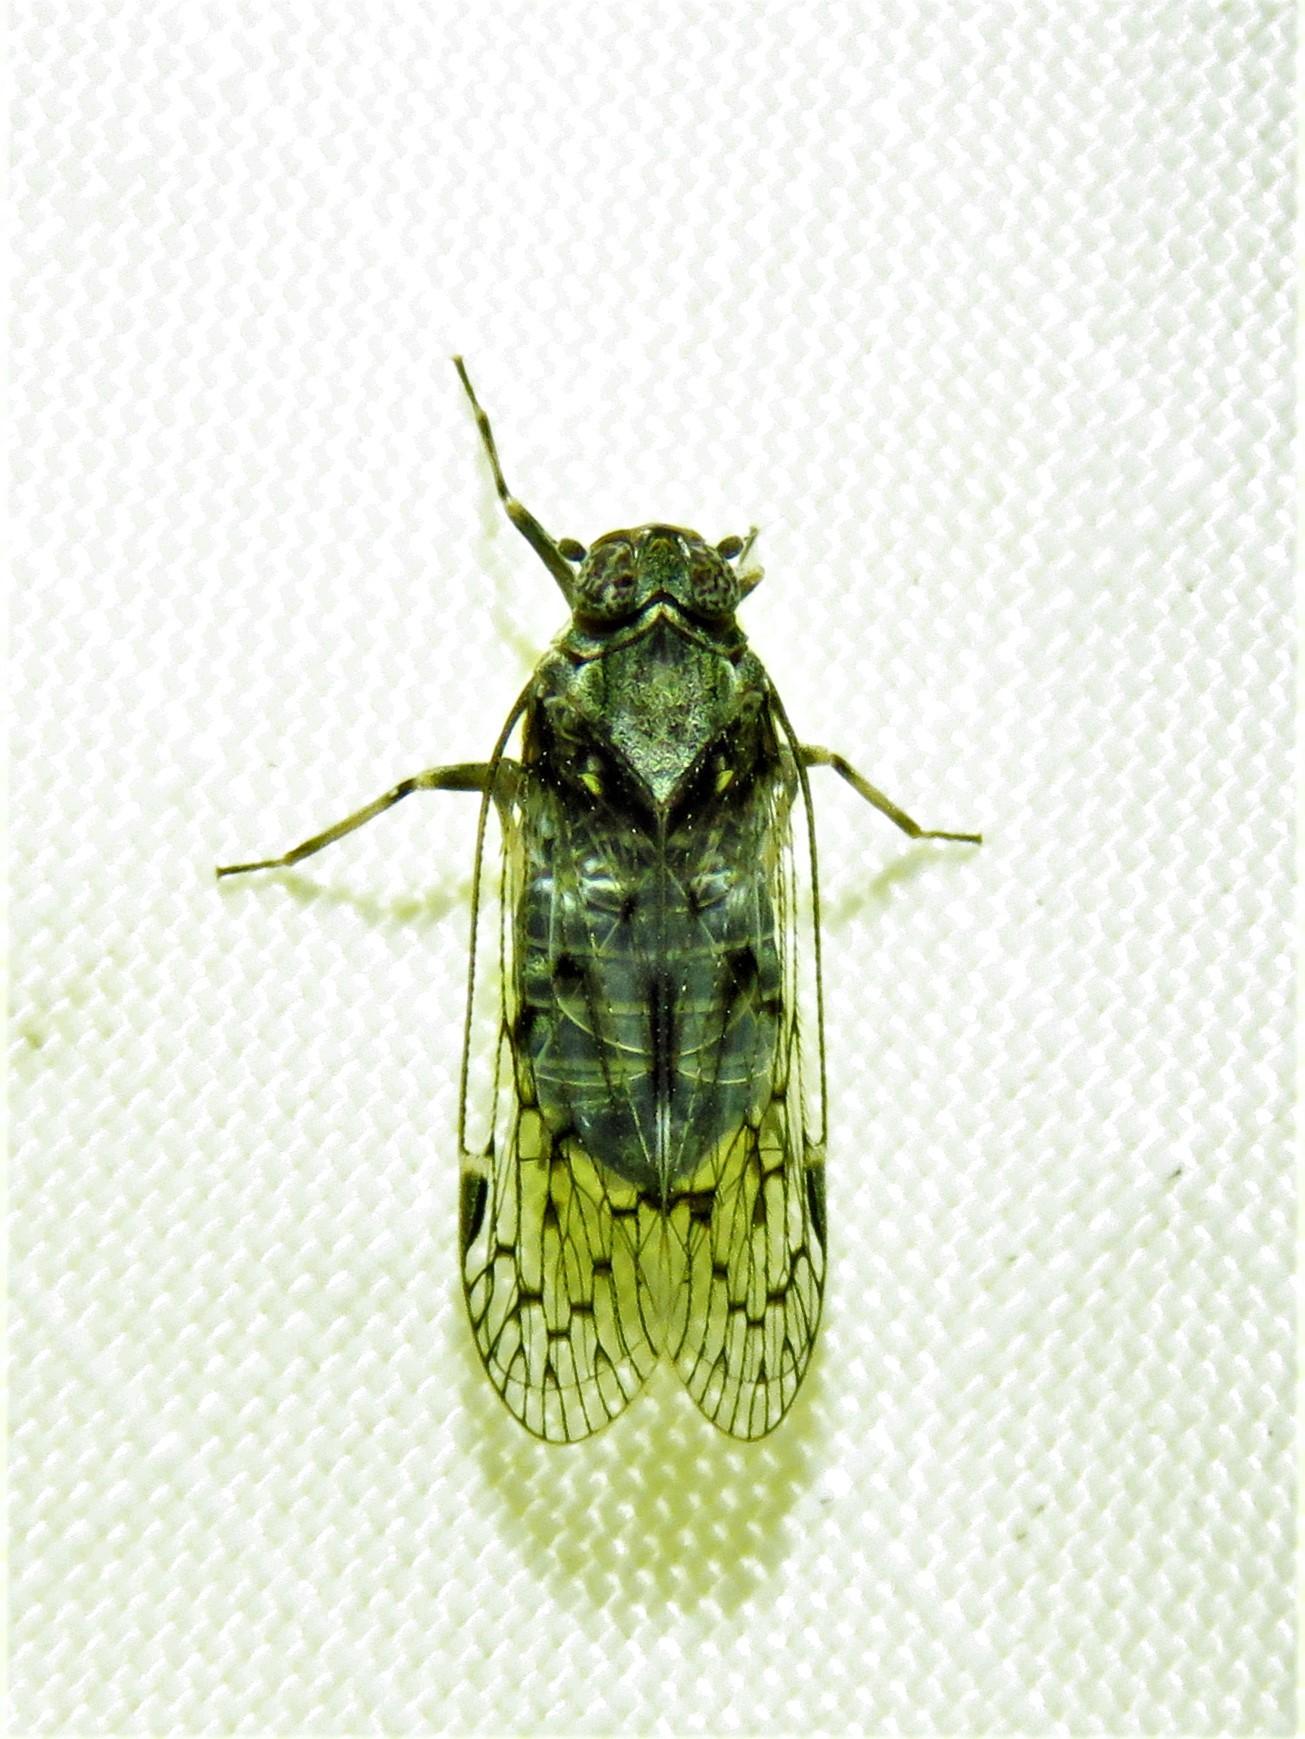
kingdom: Animalia
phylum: Arthropoda
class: Insecta
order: Hemiptera
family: Cixiidae
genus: Melanoliarus
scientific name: Melanoliarus aridus
